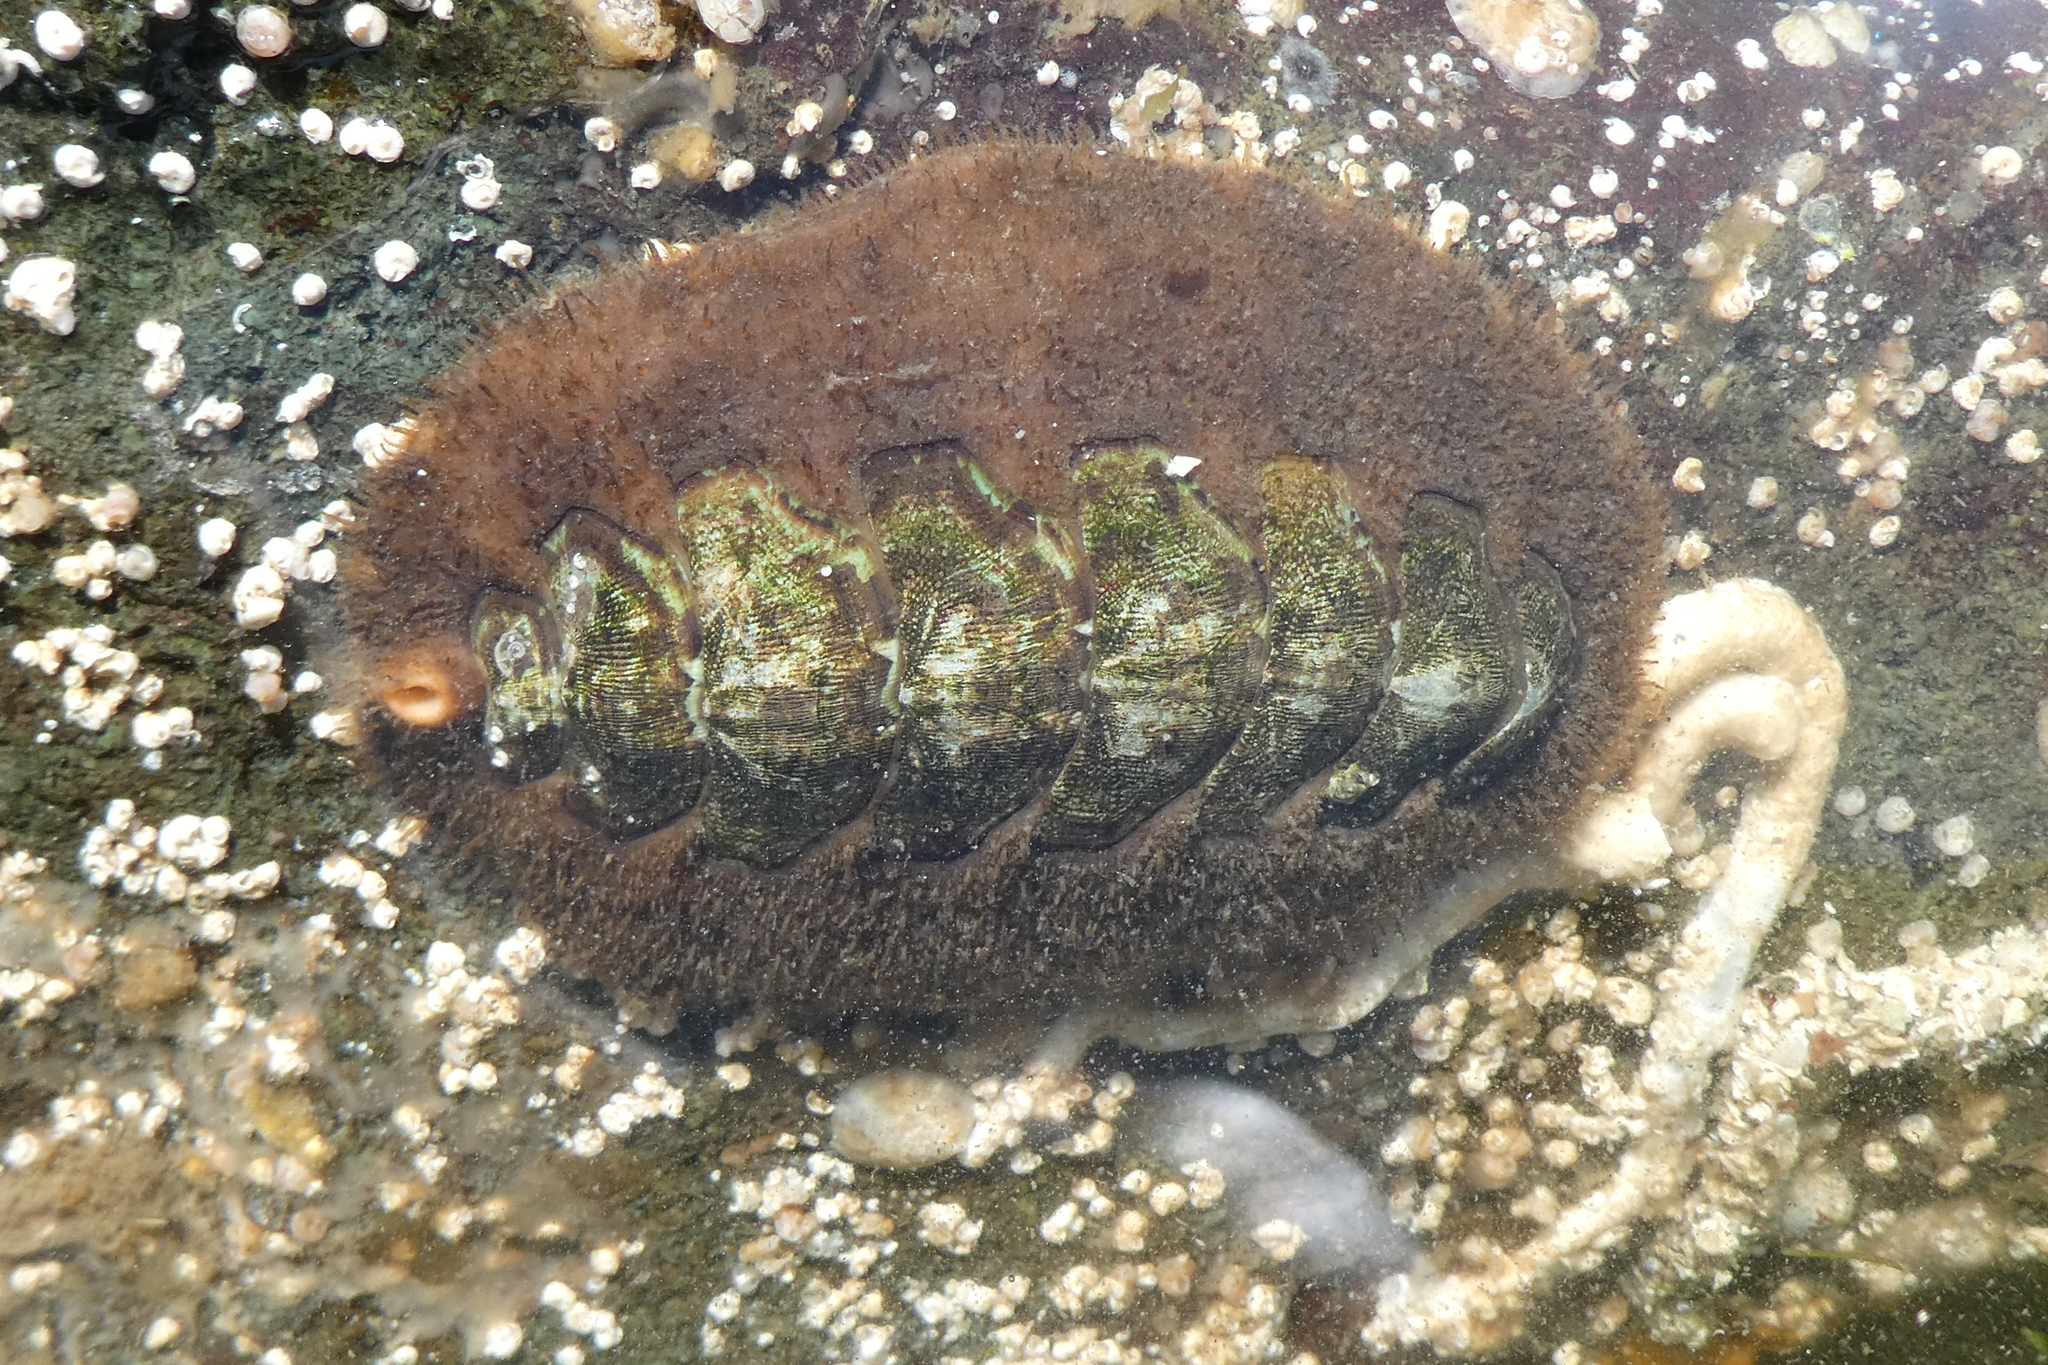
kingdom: Animalia
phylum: Mollusca
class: Polyplacophora
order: Chitonida
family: Mopaliidae
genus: Mopalia
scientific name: Mopalia ciliata
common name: Hairy chiton
